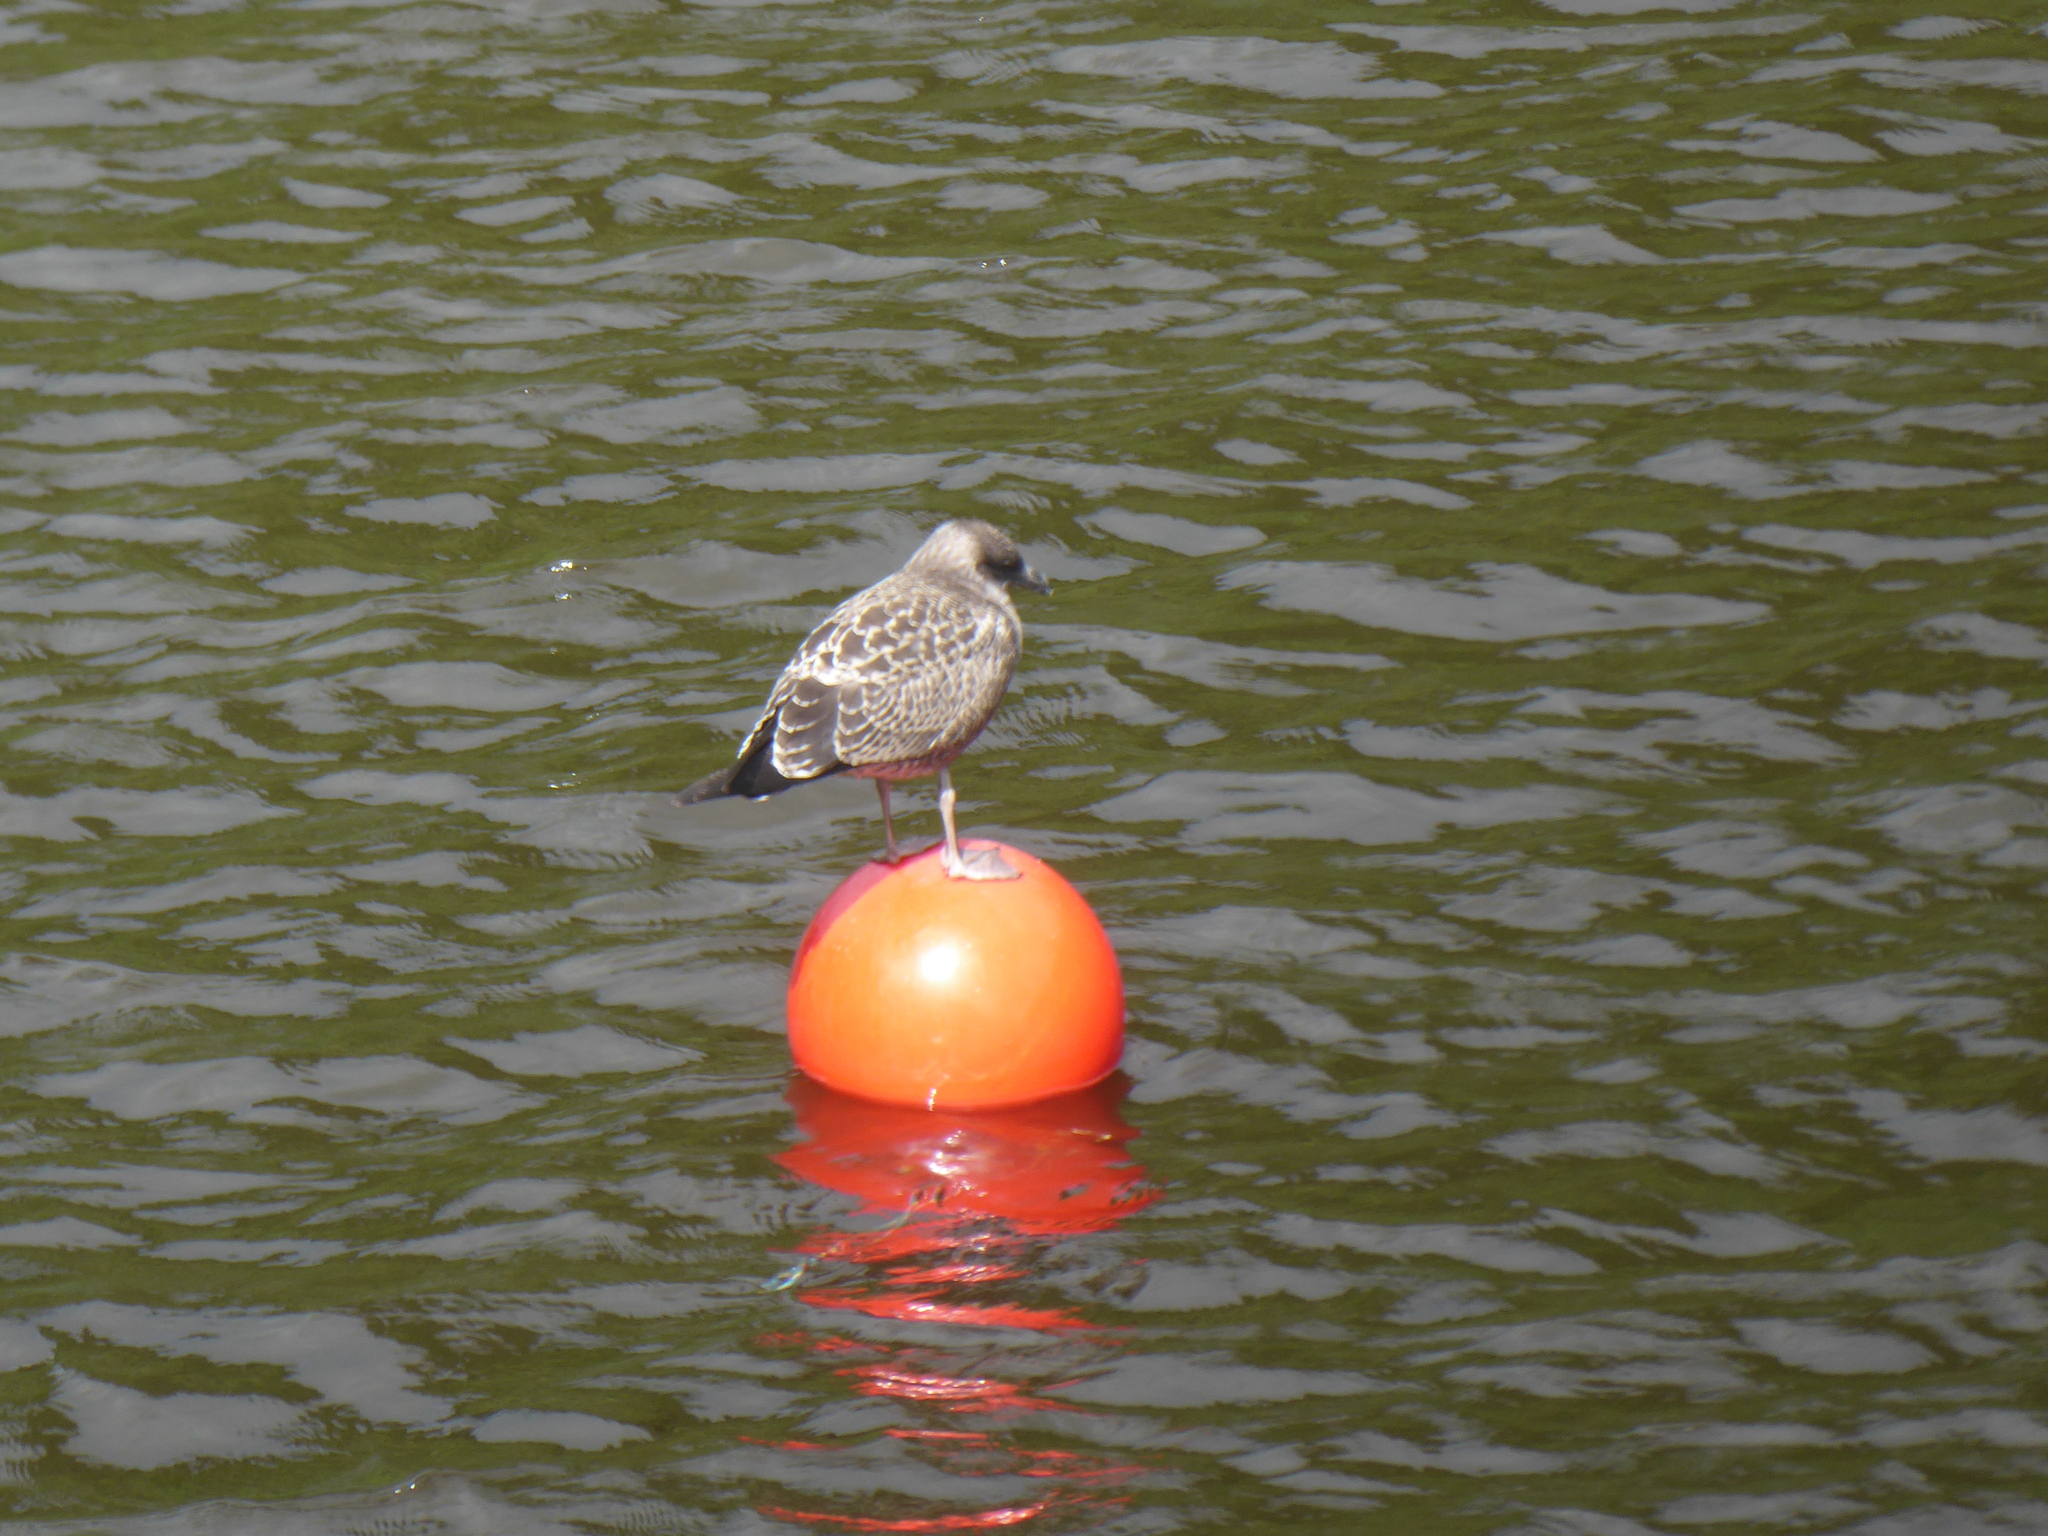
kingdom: Animalia
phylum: Chordata
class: Aves
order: Charadriiformes
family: Laridae
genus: Larus
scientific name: Larus dominicanus
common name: Kelp gull
